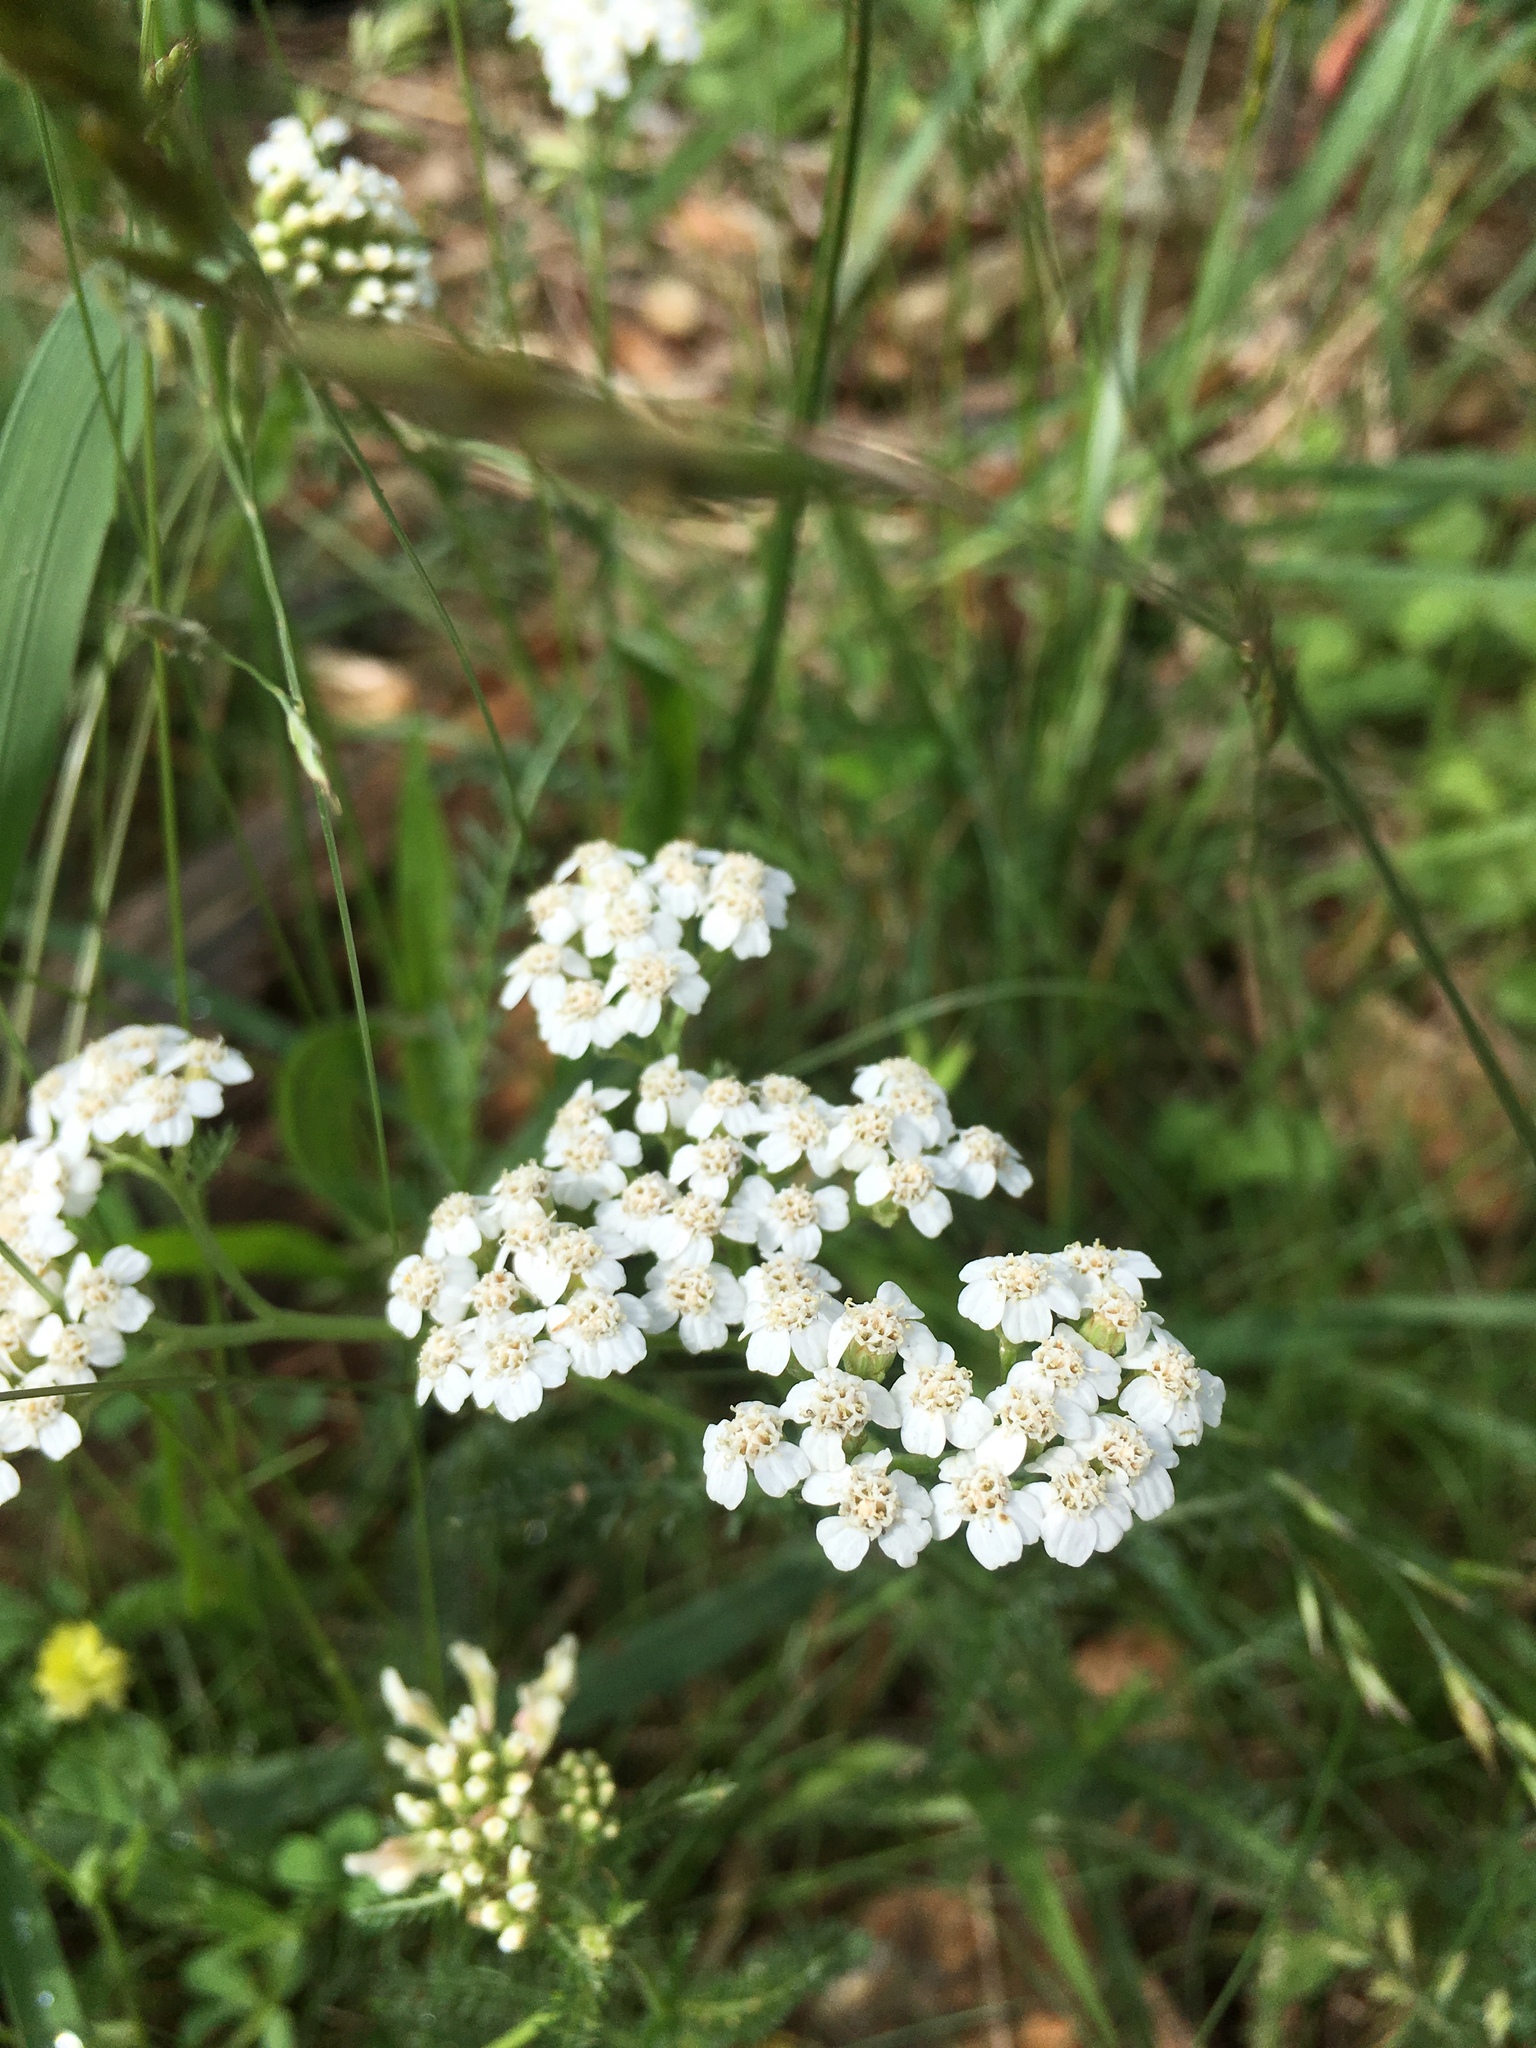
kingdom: Plantae
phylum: Tracheophyta
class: Magnoliopsida
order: Asterales
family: Asteraceae
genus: Achillea
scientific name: Achillea millefolium
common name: Yarrow
